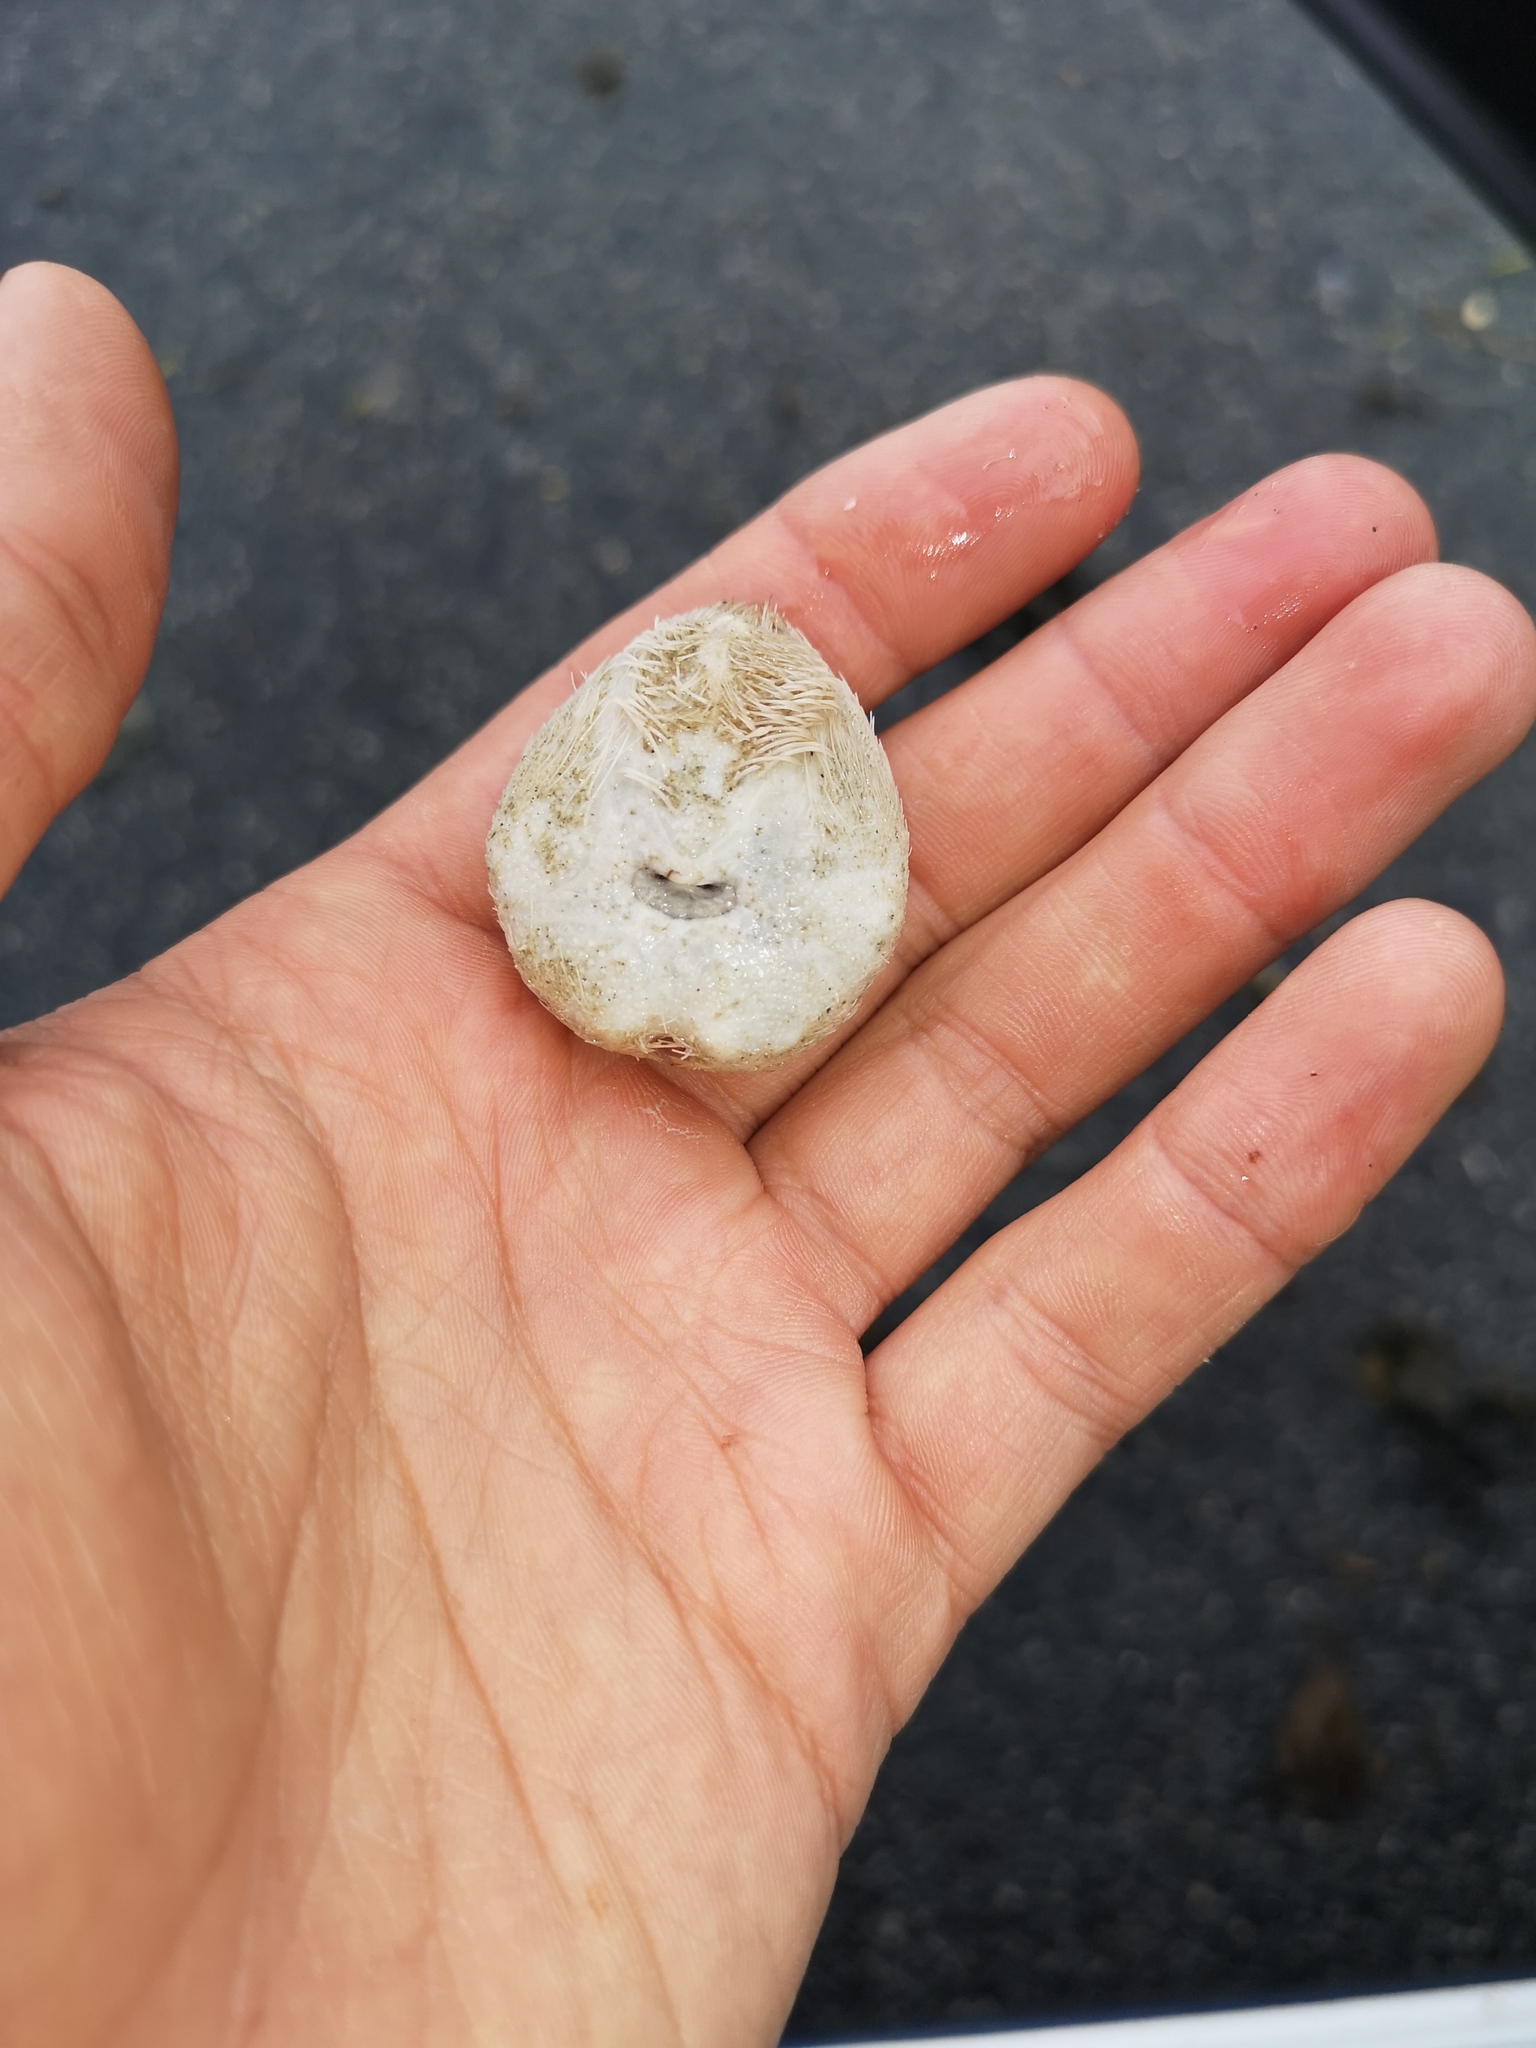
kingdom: Animalia
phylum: Echinodermata
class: Echinoidea
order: Spatangoida
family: Loveniidae
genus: Echinocardium
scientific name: Echinocardium cordatum
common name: Heart-urchin
